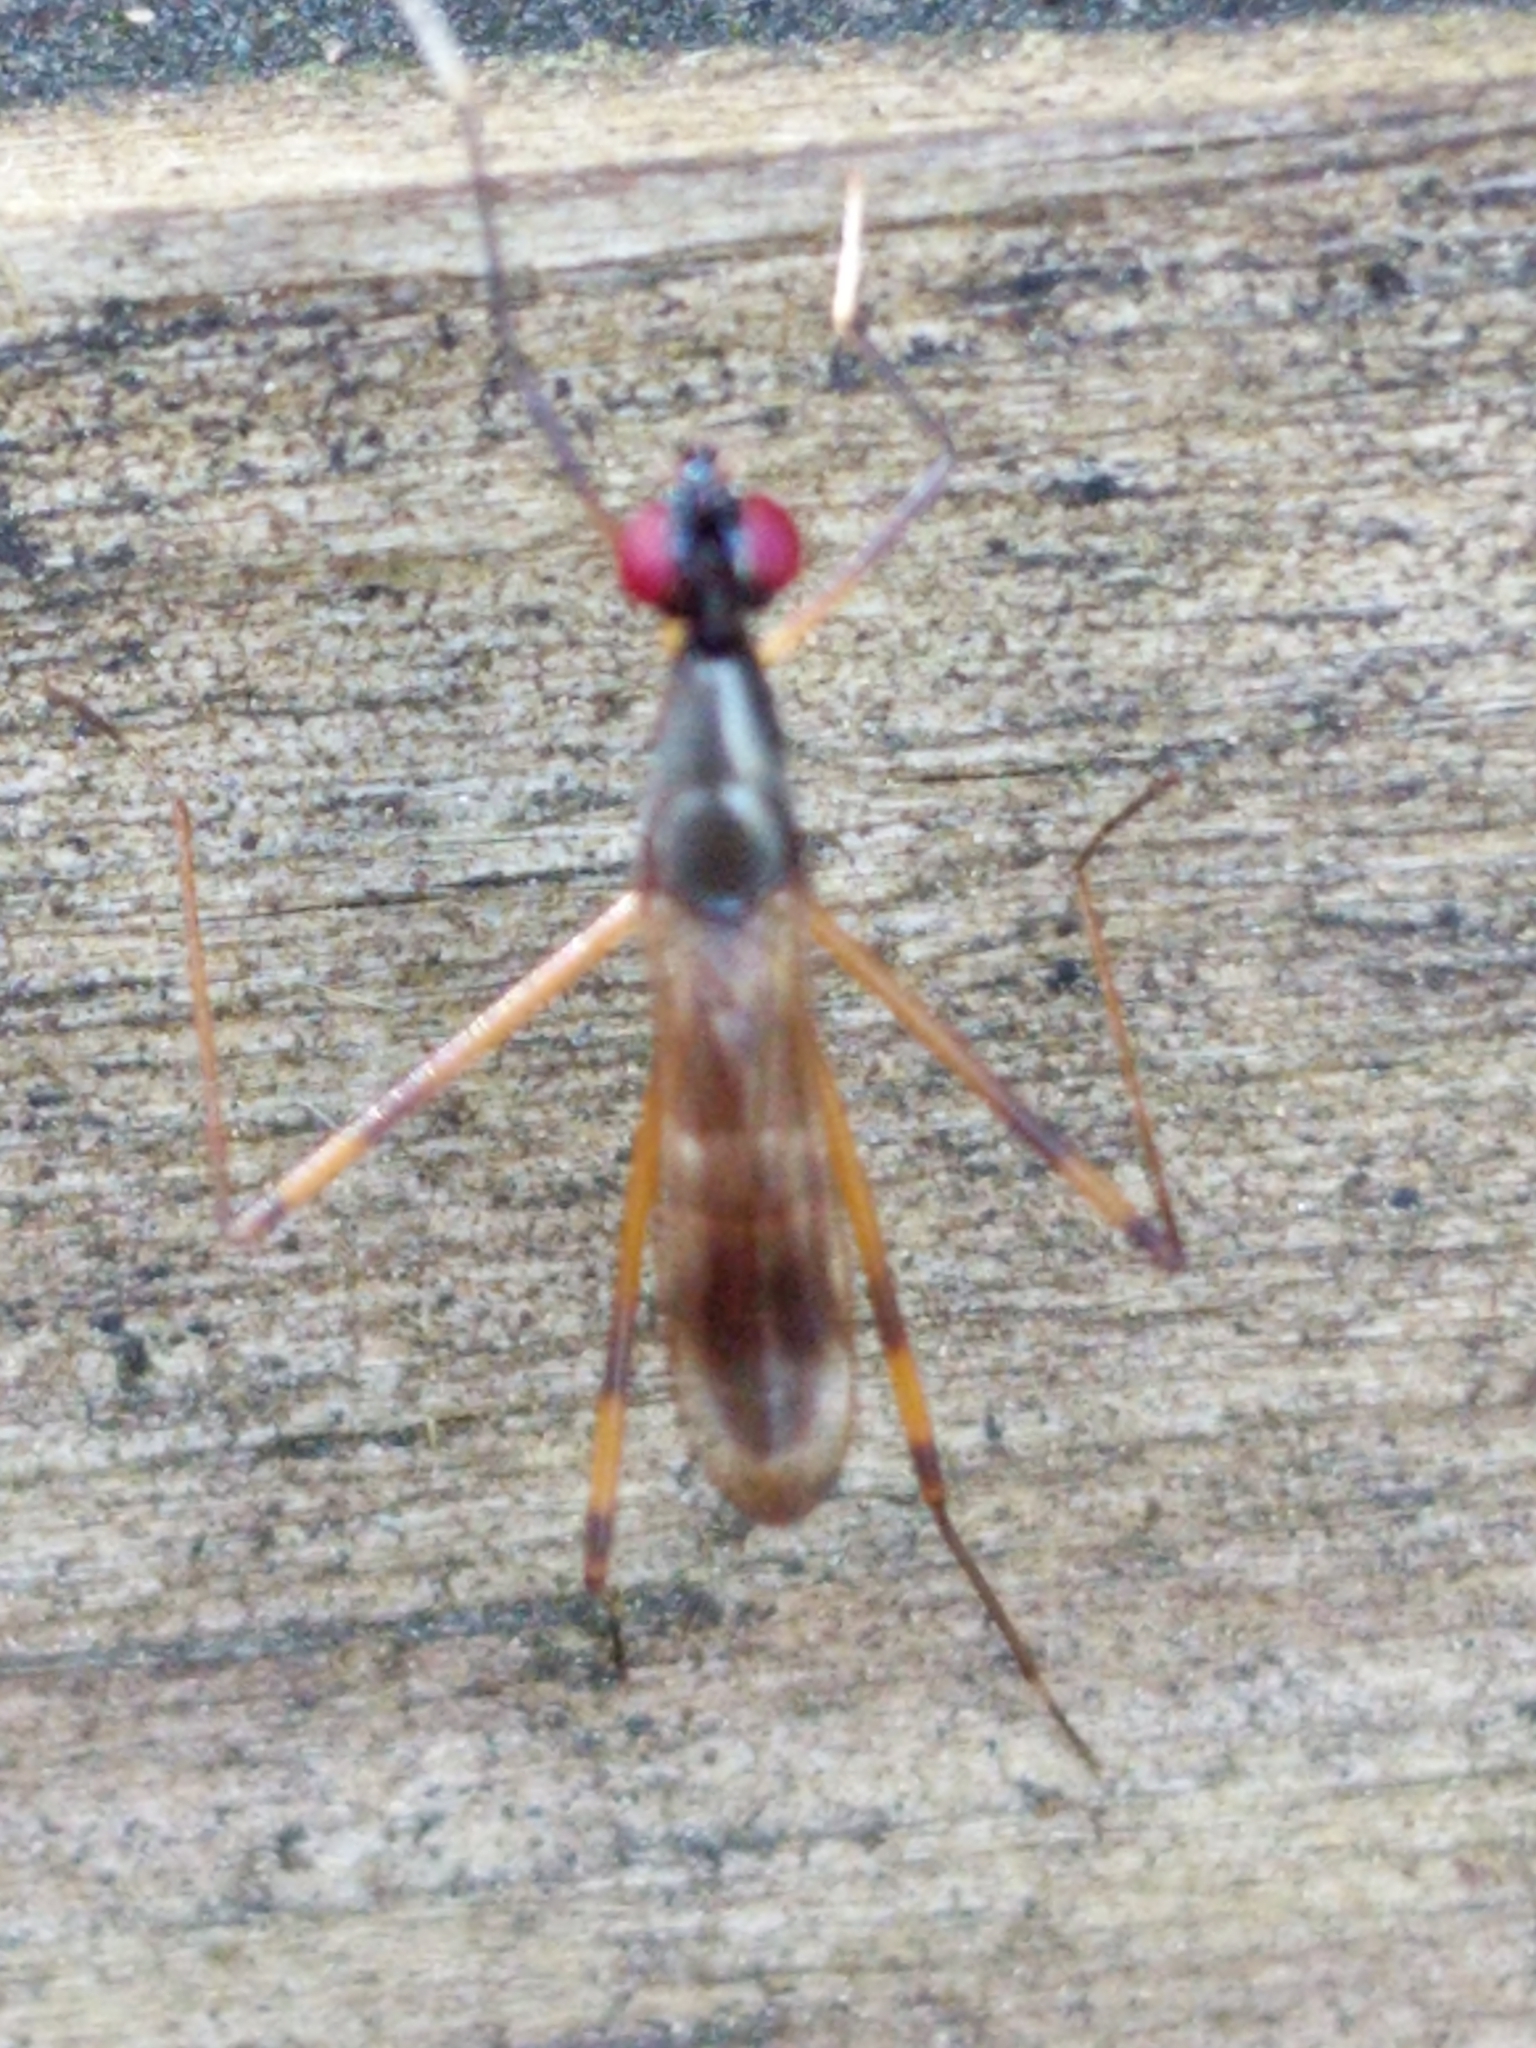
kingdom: Animalia
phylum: Arthropoda
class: Insecta
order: Diptera
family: Micropezidae
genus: Rainieria
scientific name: Rainieria antennaepes
